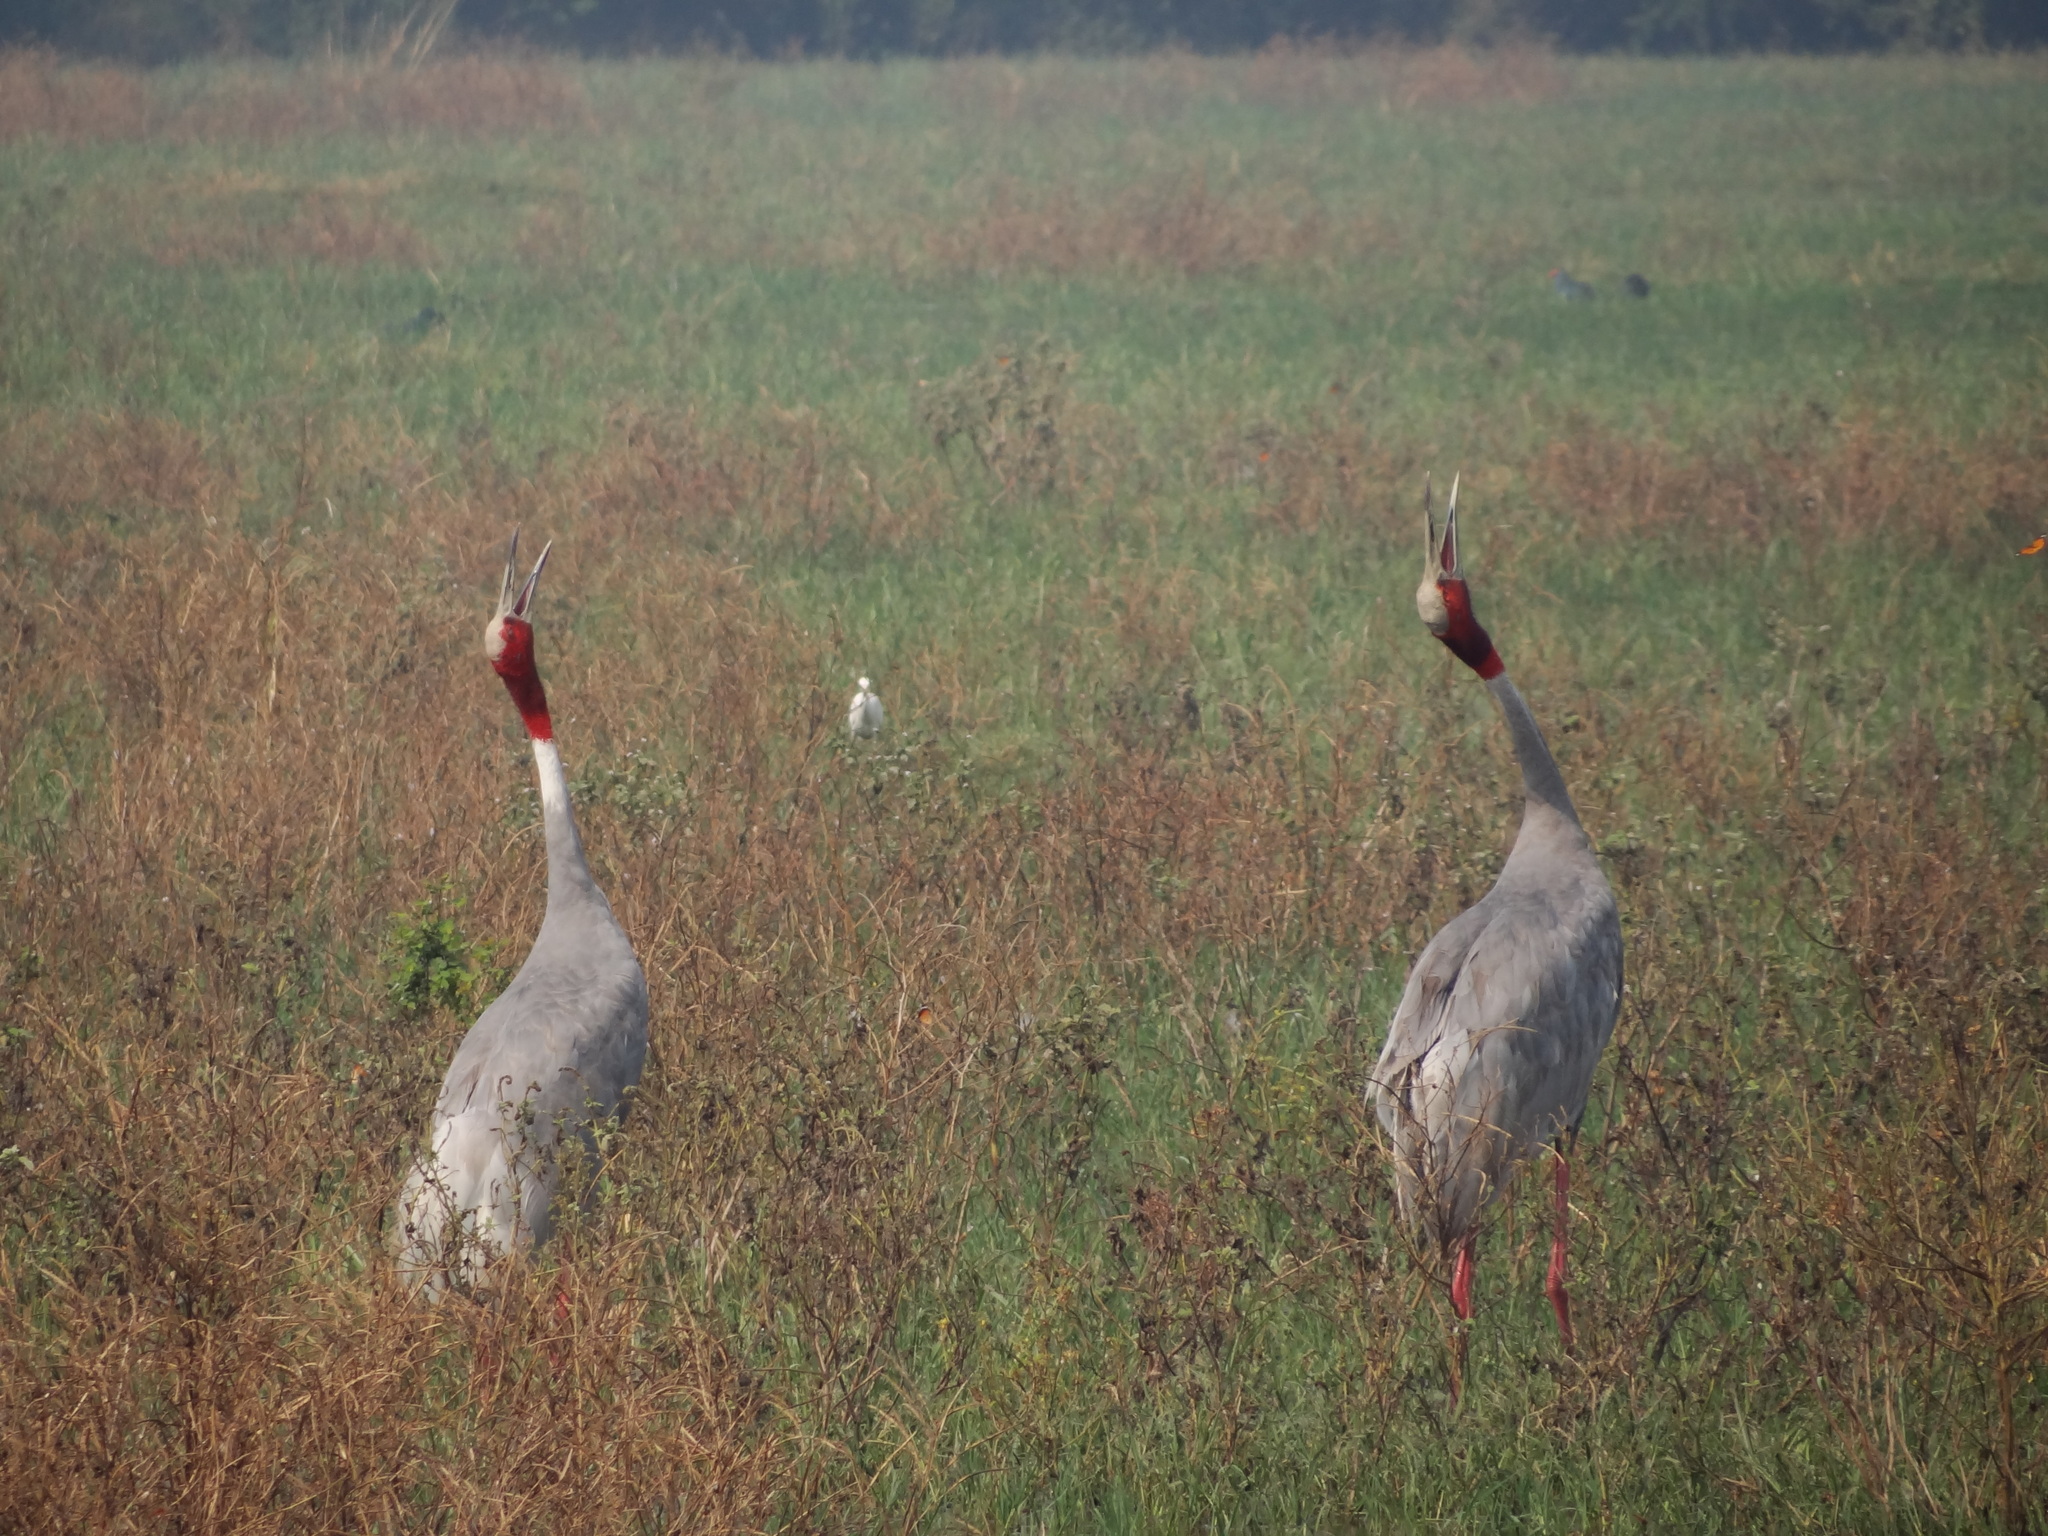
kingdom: Animalia
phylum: Chordata
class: Aves
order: Gruiformes
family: Gruidae
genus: Grus
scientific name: Grus antigone
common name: Sarus crane
